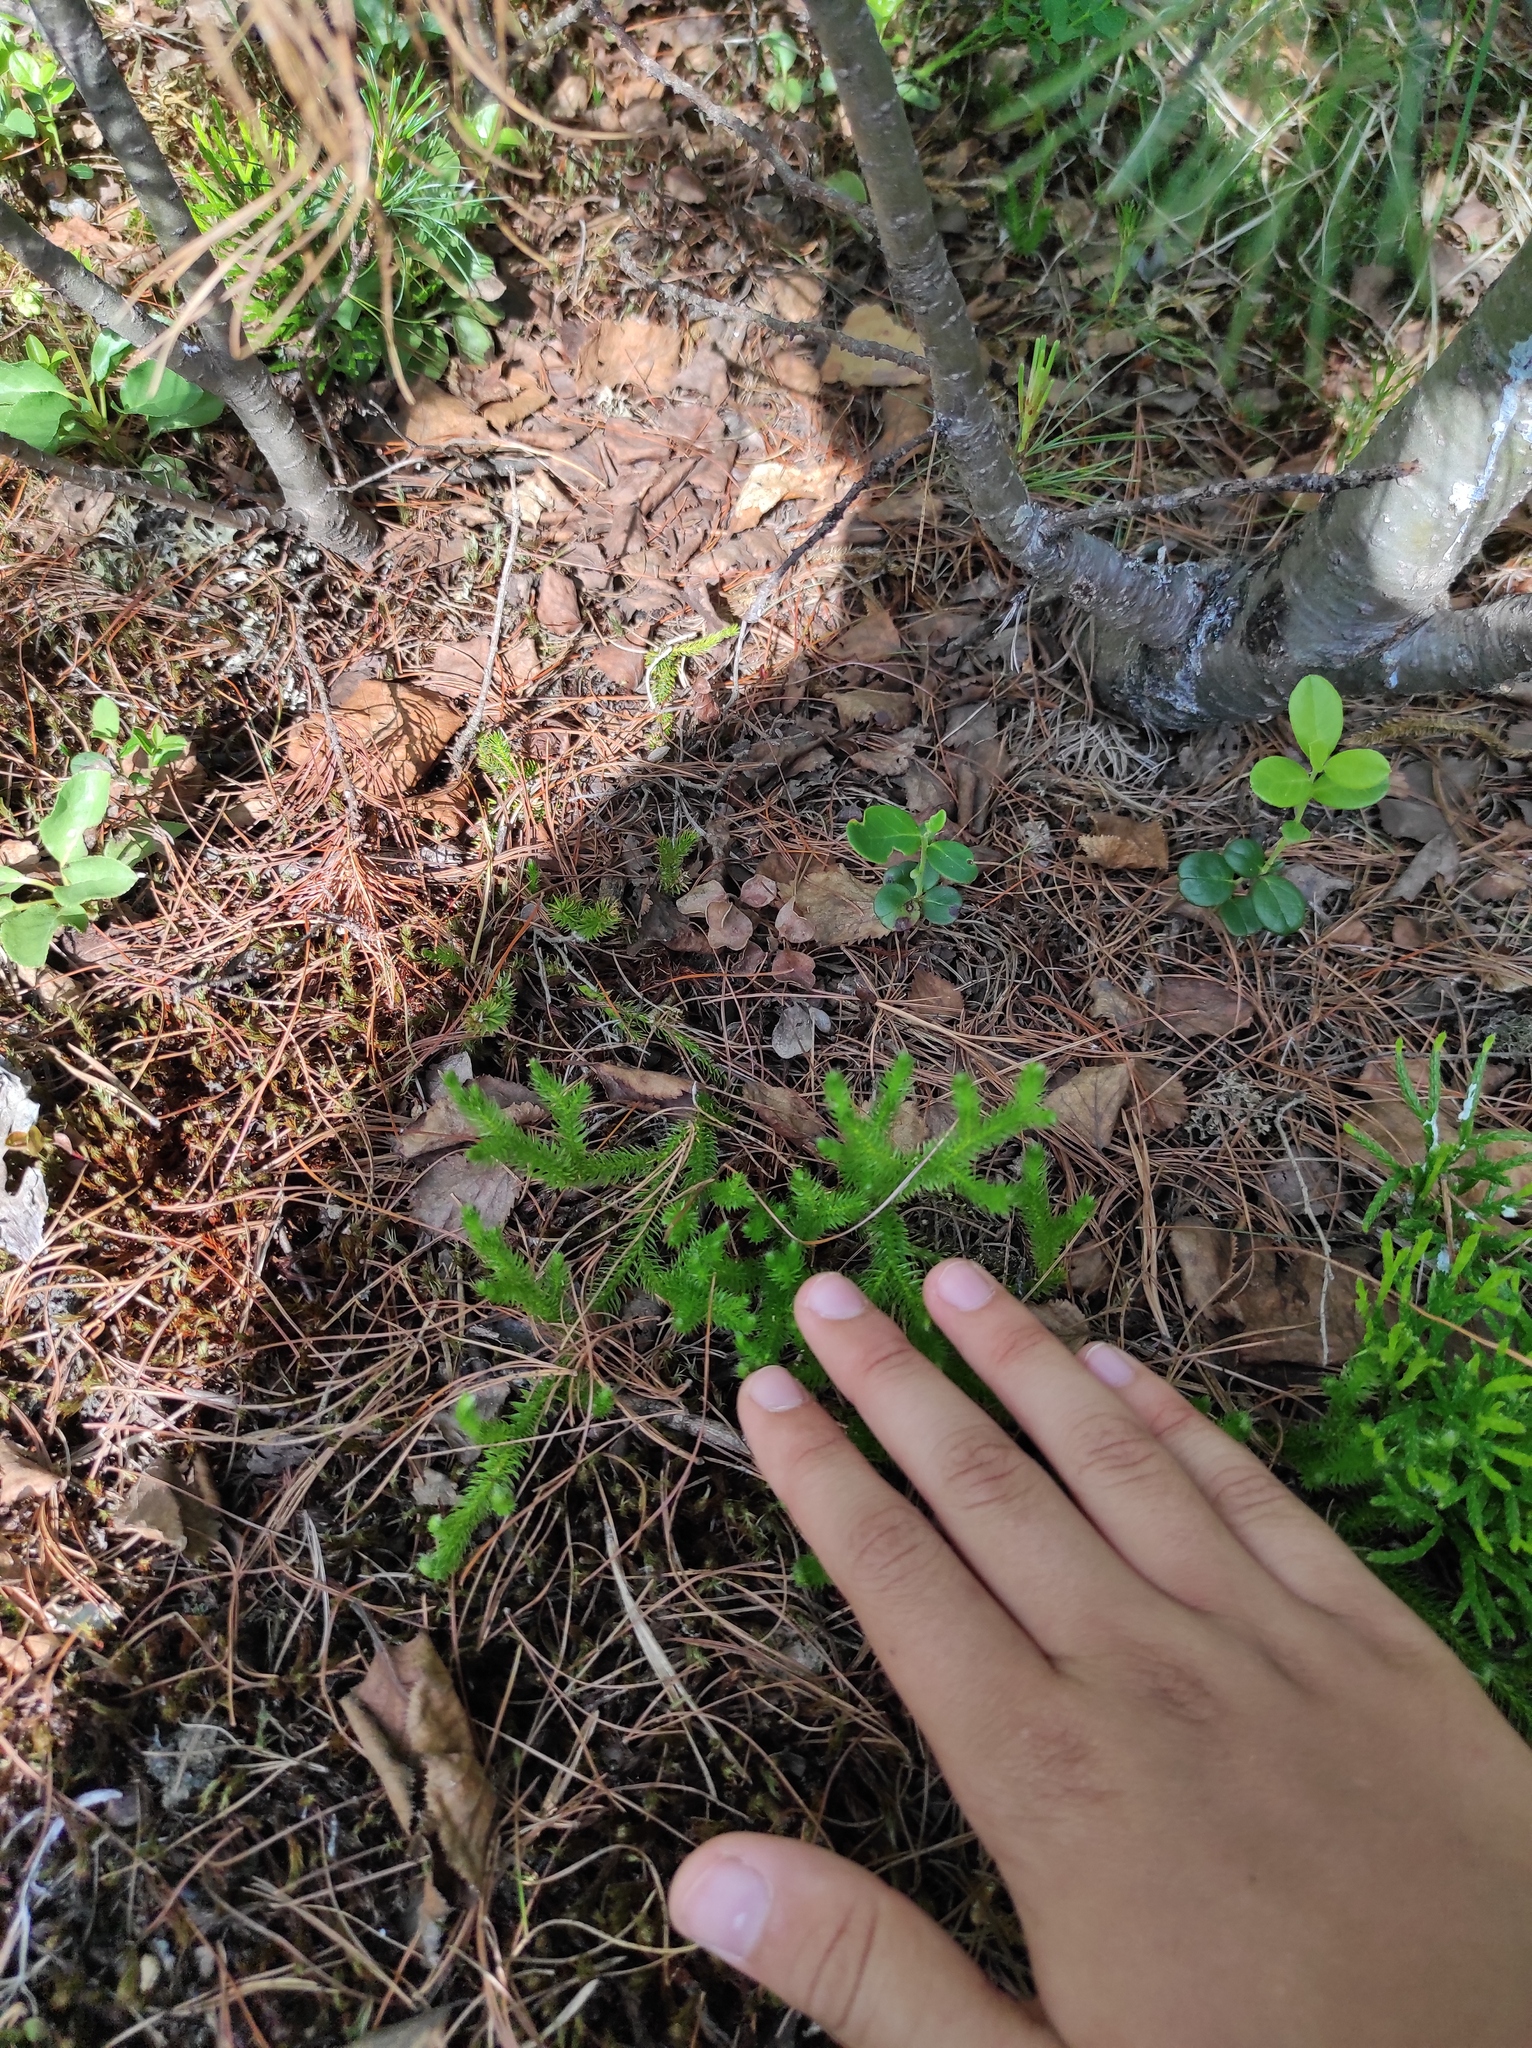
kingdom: Plantae
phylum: Tracheophyta
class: Lycopodiopsida
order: Lycopodiales
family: Lycopodiaceae
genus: Diphasiastrum
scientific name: Diphasiastrum issleri
